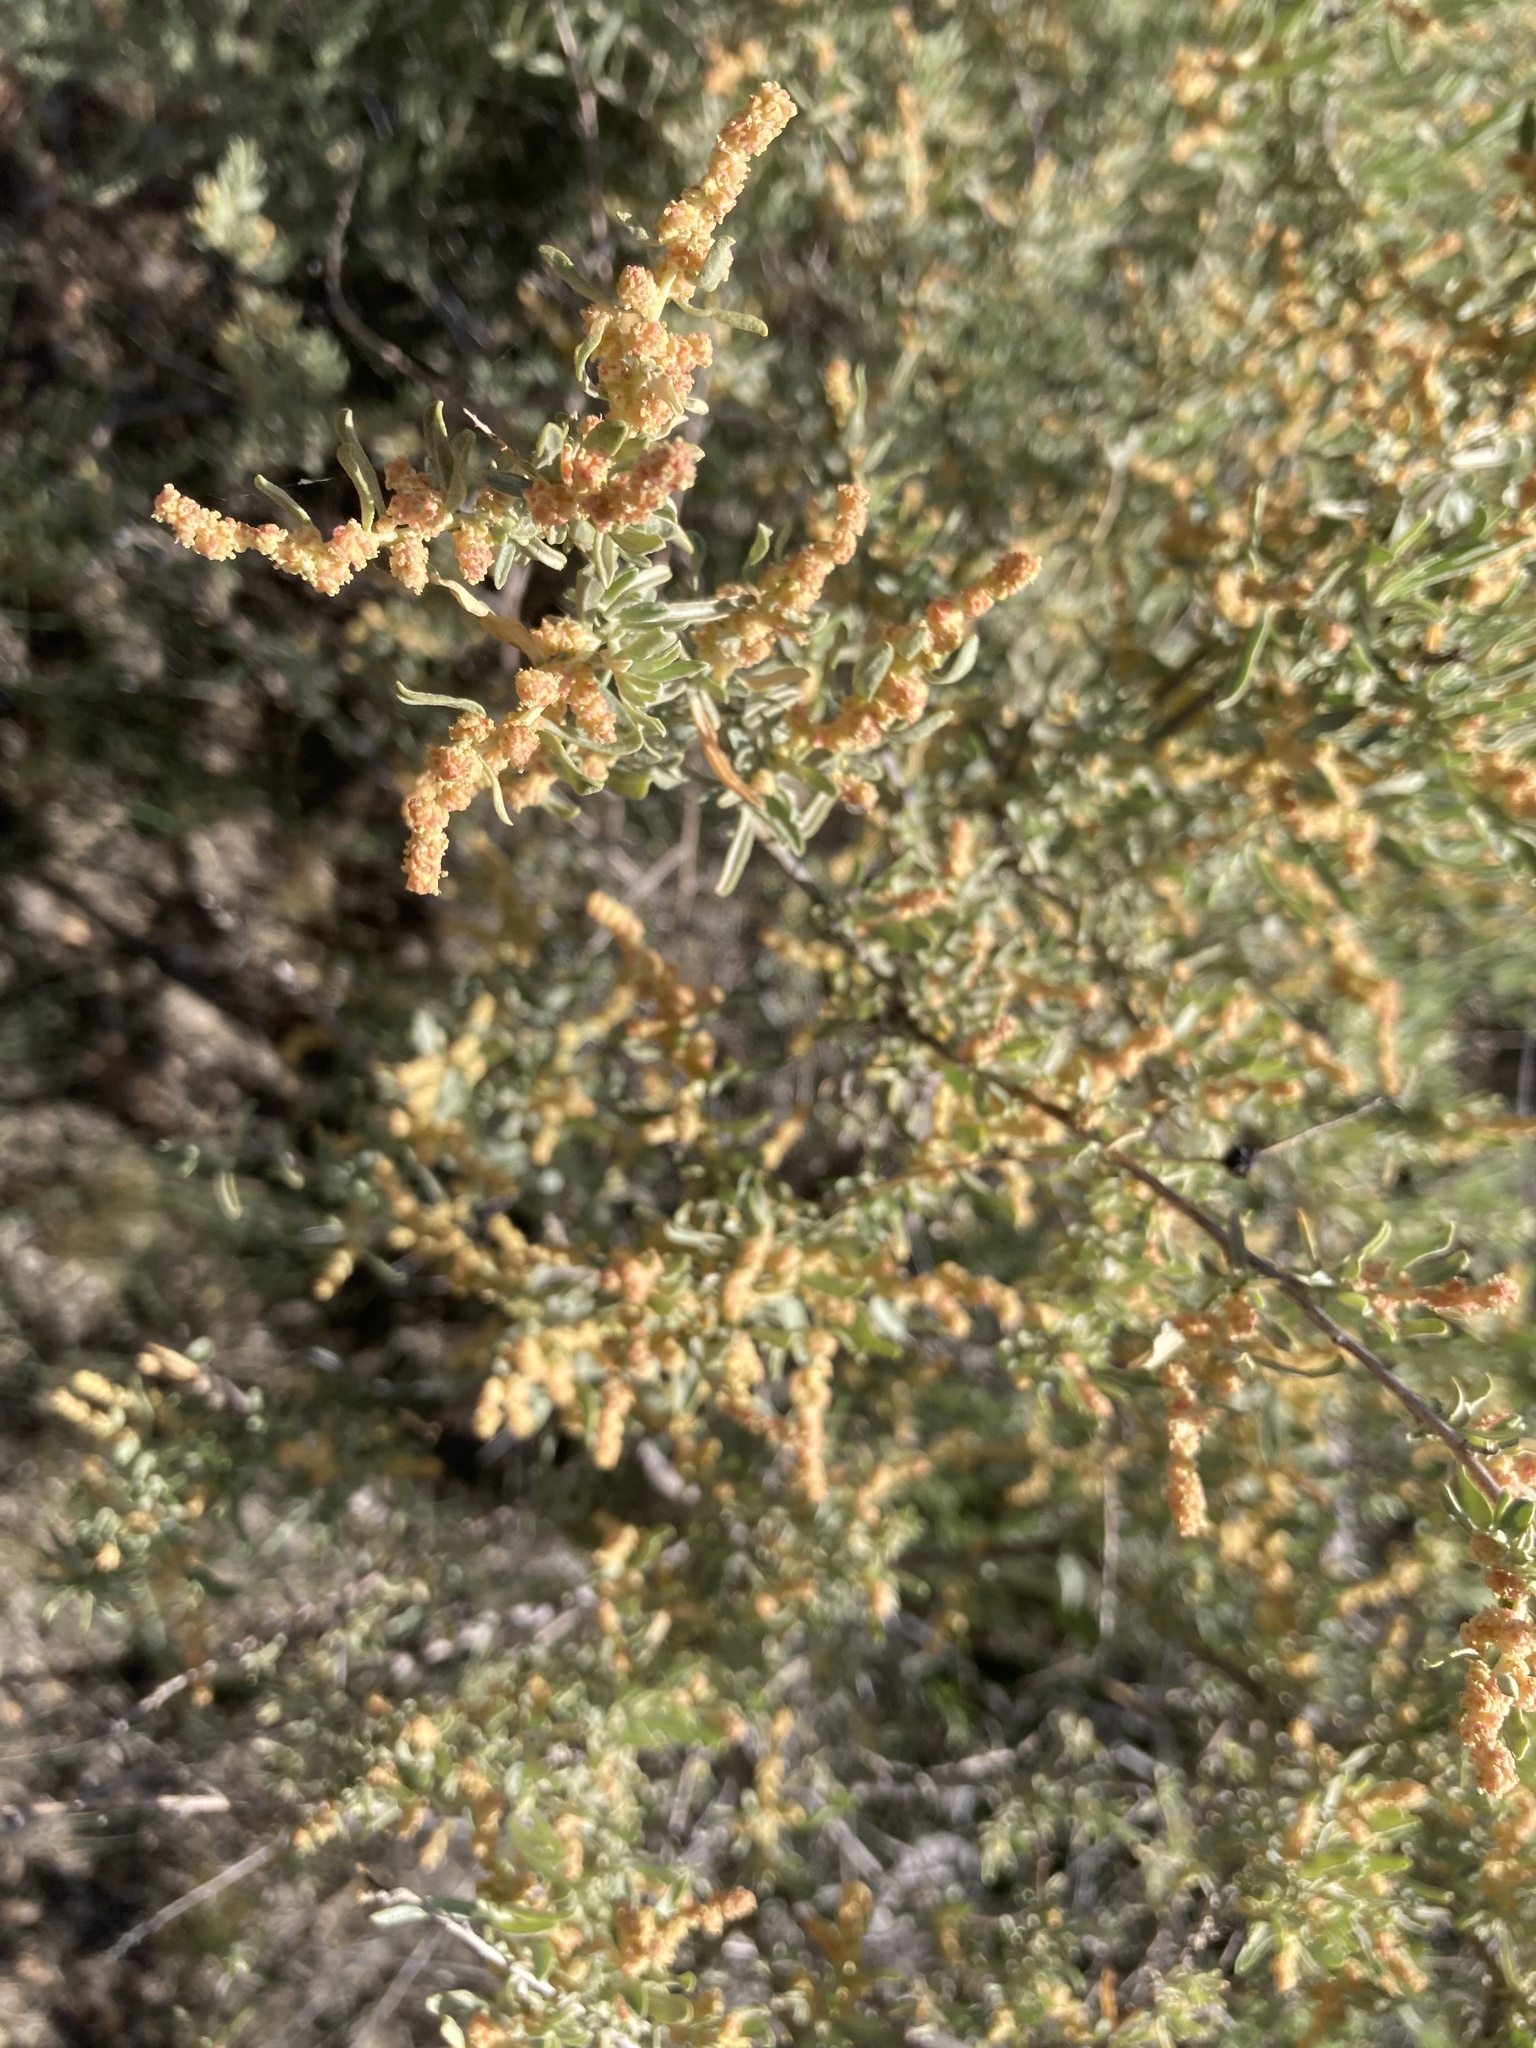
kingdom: Plantae
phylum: Tracheophyta
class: Magnoliopsida
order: Caryophyllales
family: Amaranthaceae
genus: Atriplex
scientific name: Atriplex canescens
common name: Four-wing saltbush
